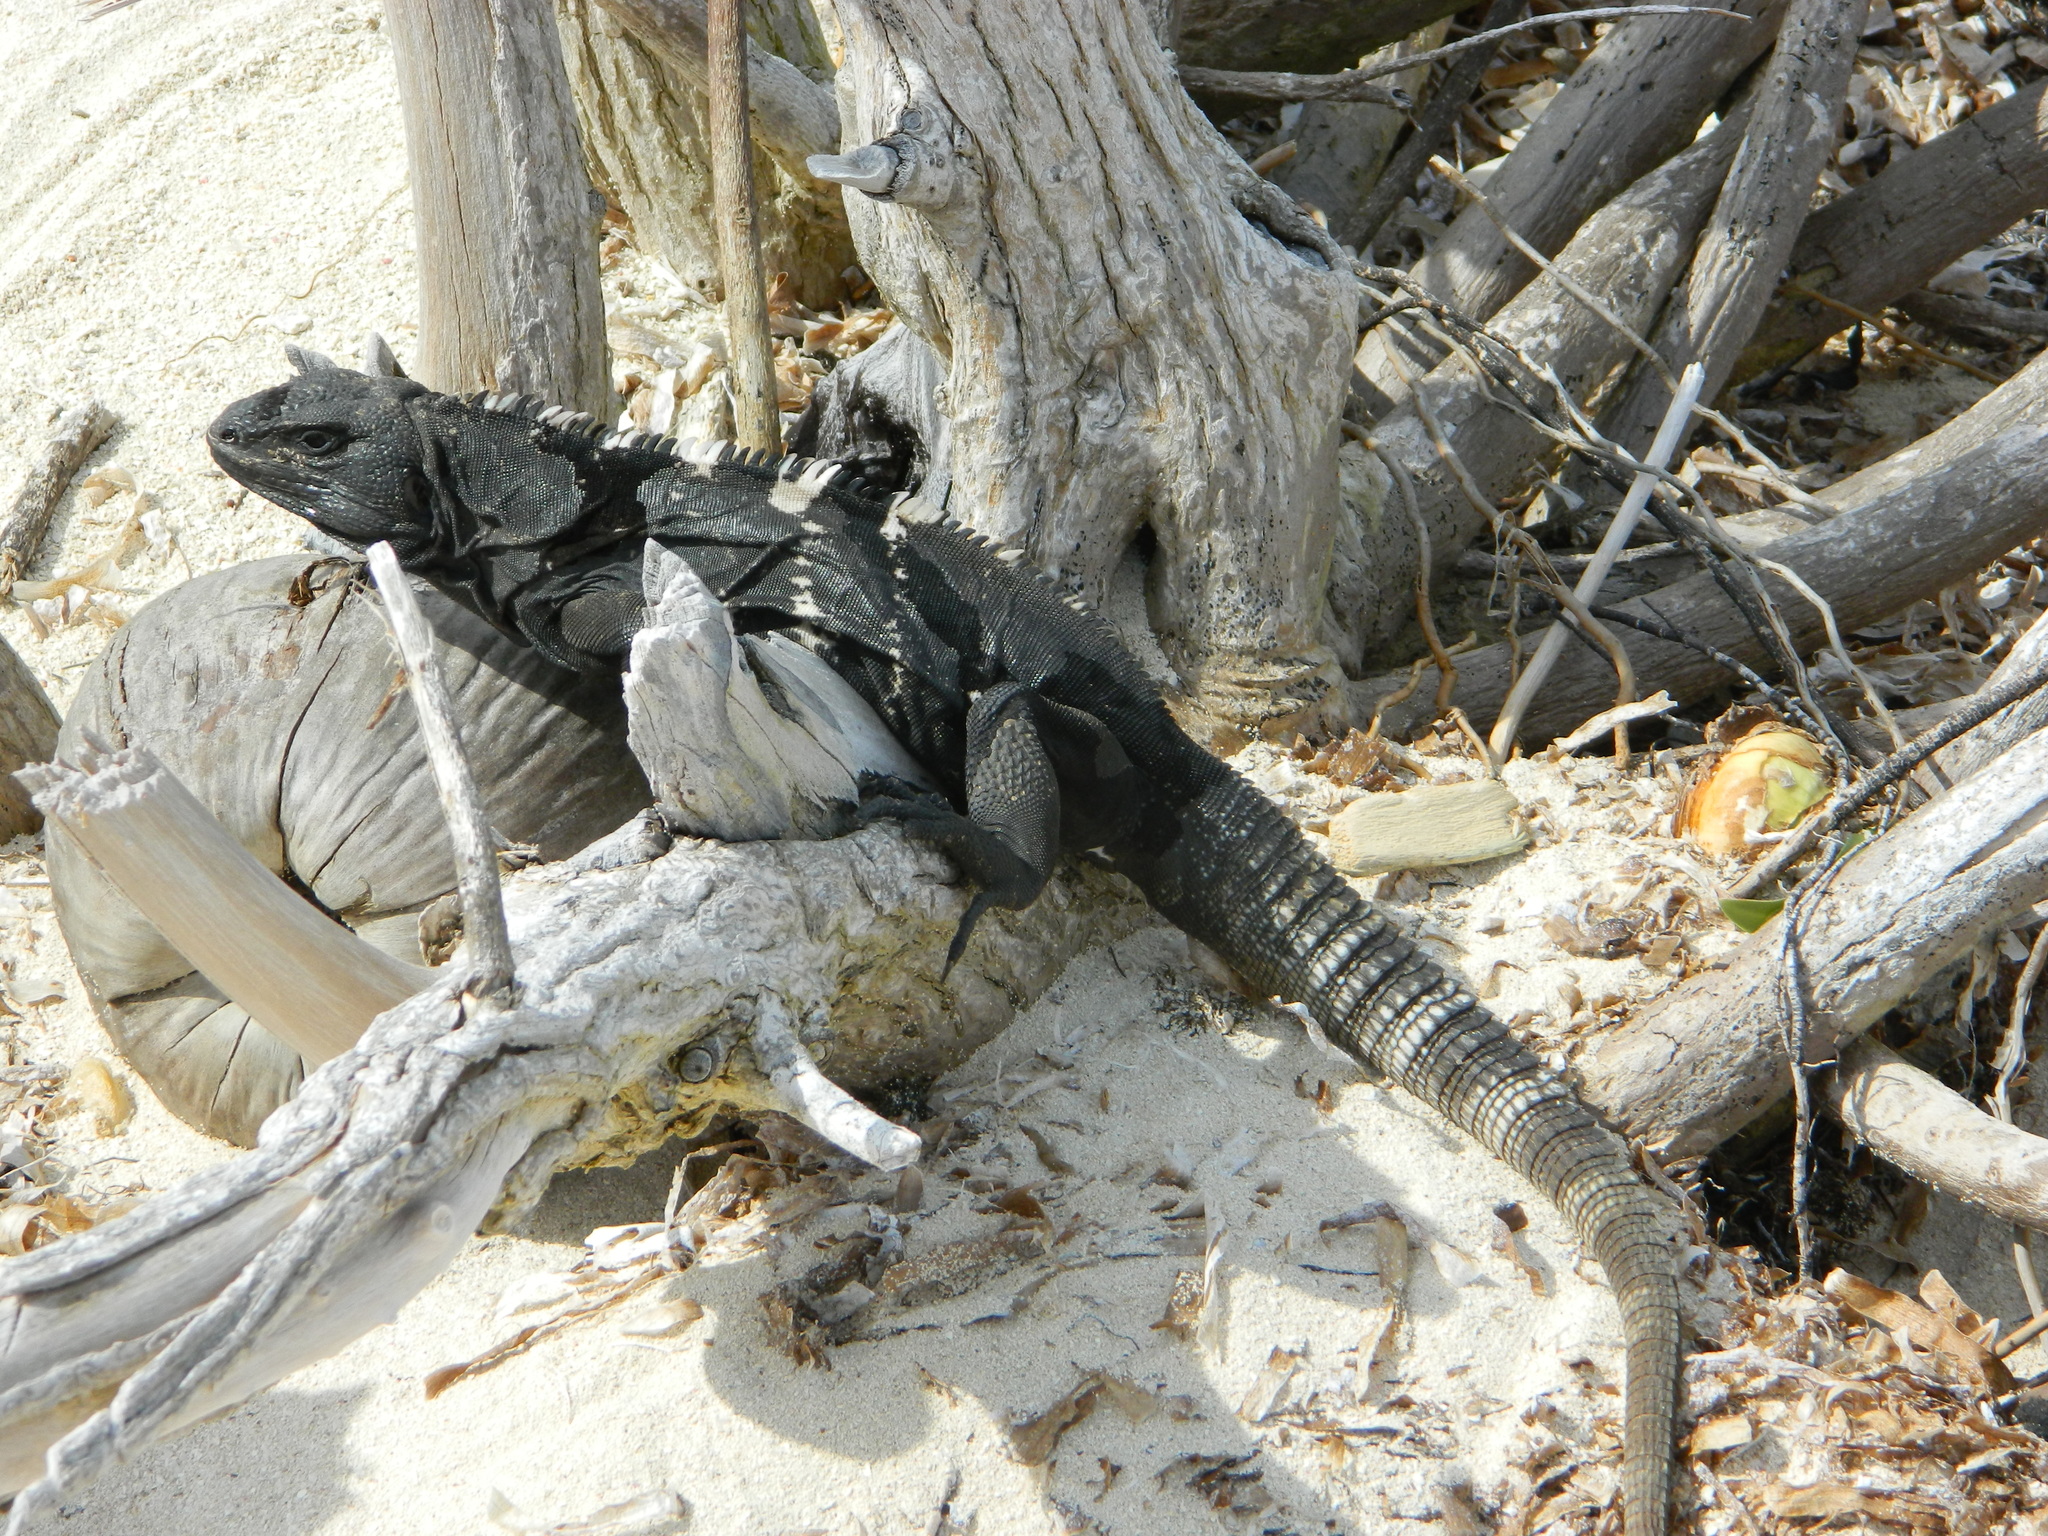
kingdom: Animalia
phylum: Chordata
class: Squamata
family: Iguanidae
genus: Ctenosaura
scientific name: Ctenosaura oedirhina
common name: Roatan spiny-tailed iguana
